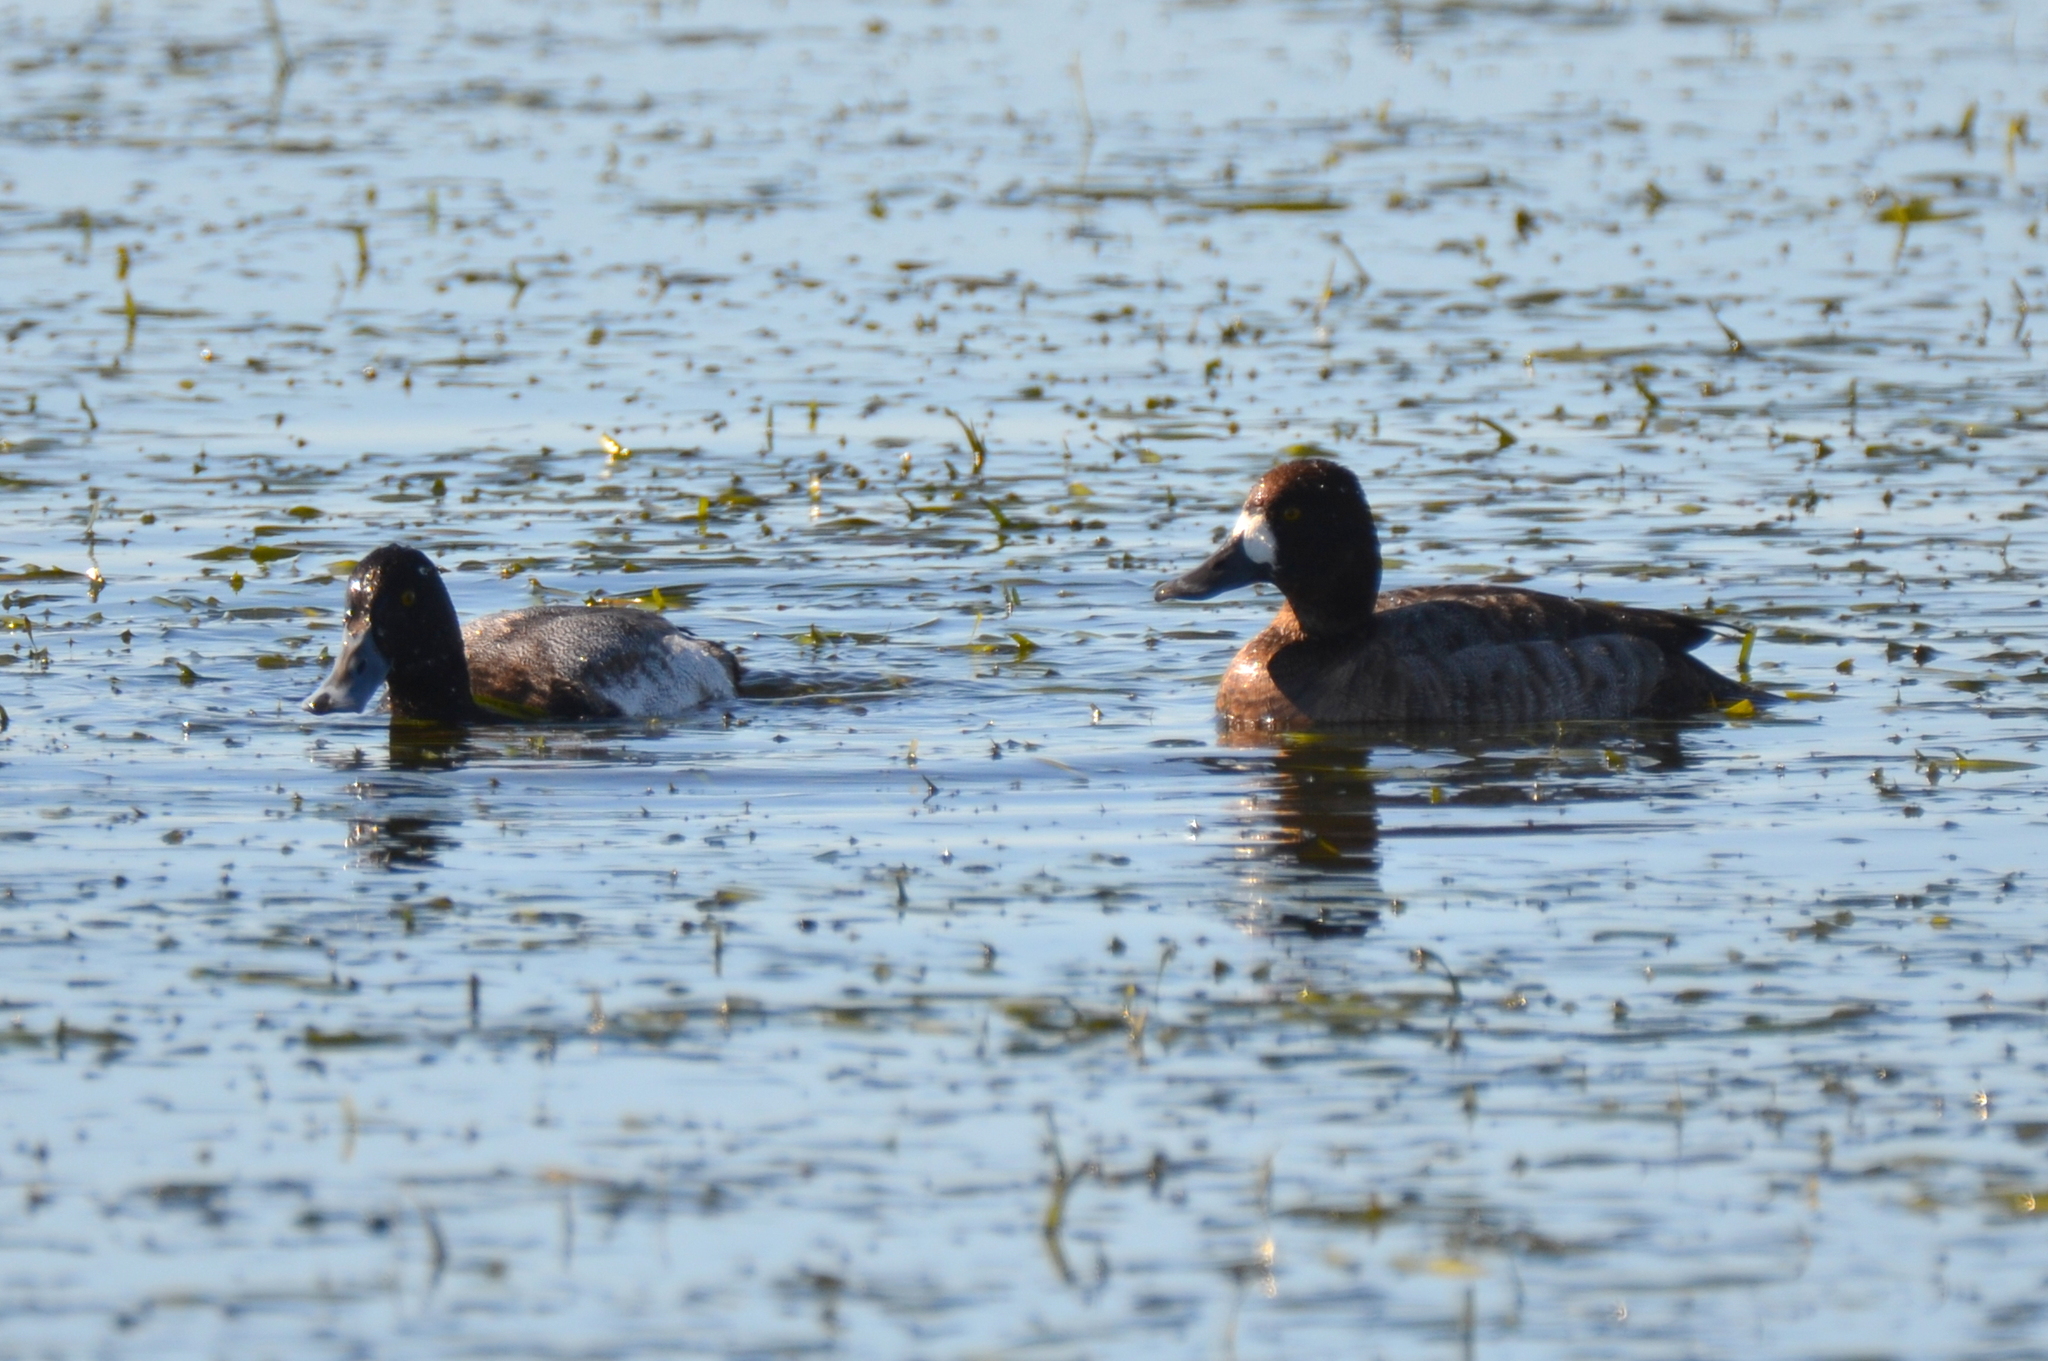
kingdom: Animalia
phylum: Chordata
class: Aves
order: Anseriformes
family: Anatidae
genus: Aythya
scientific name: Aythya marila
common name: Greater scaup
